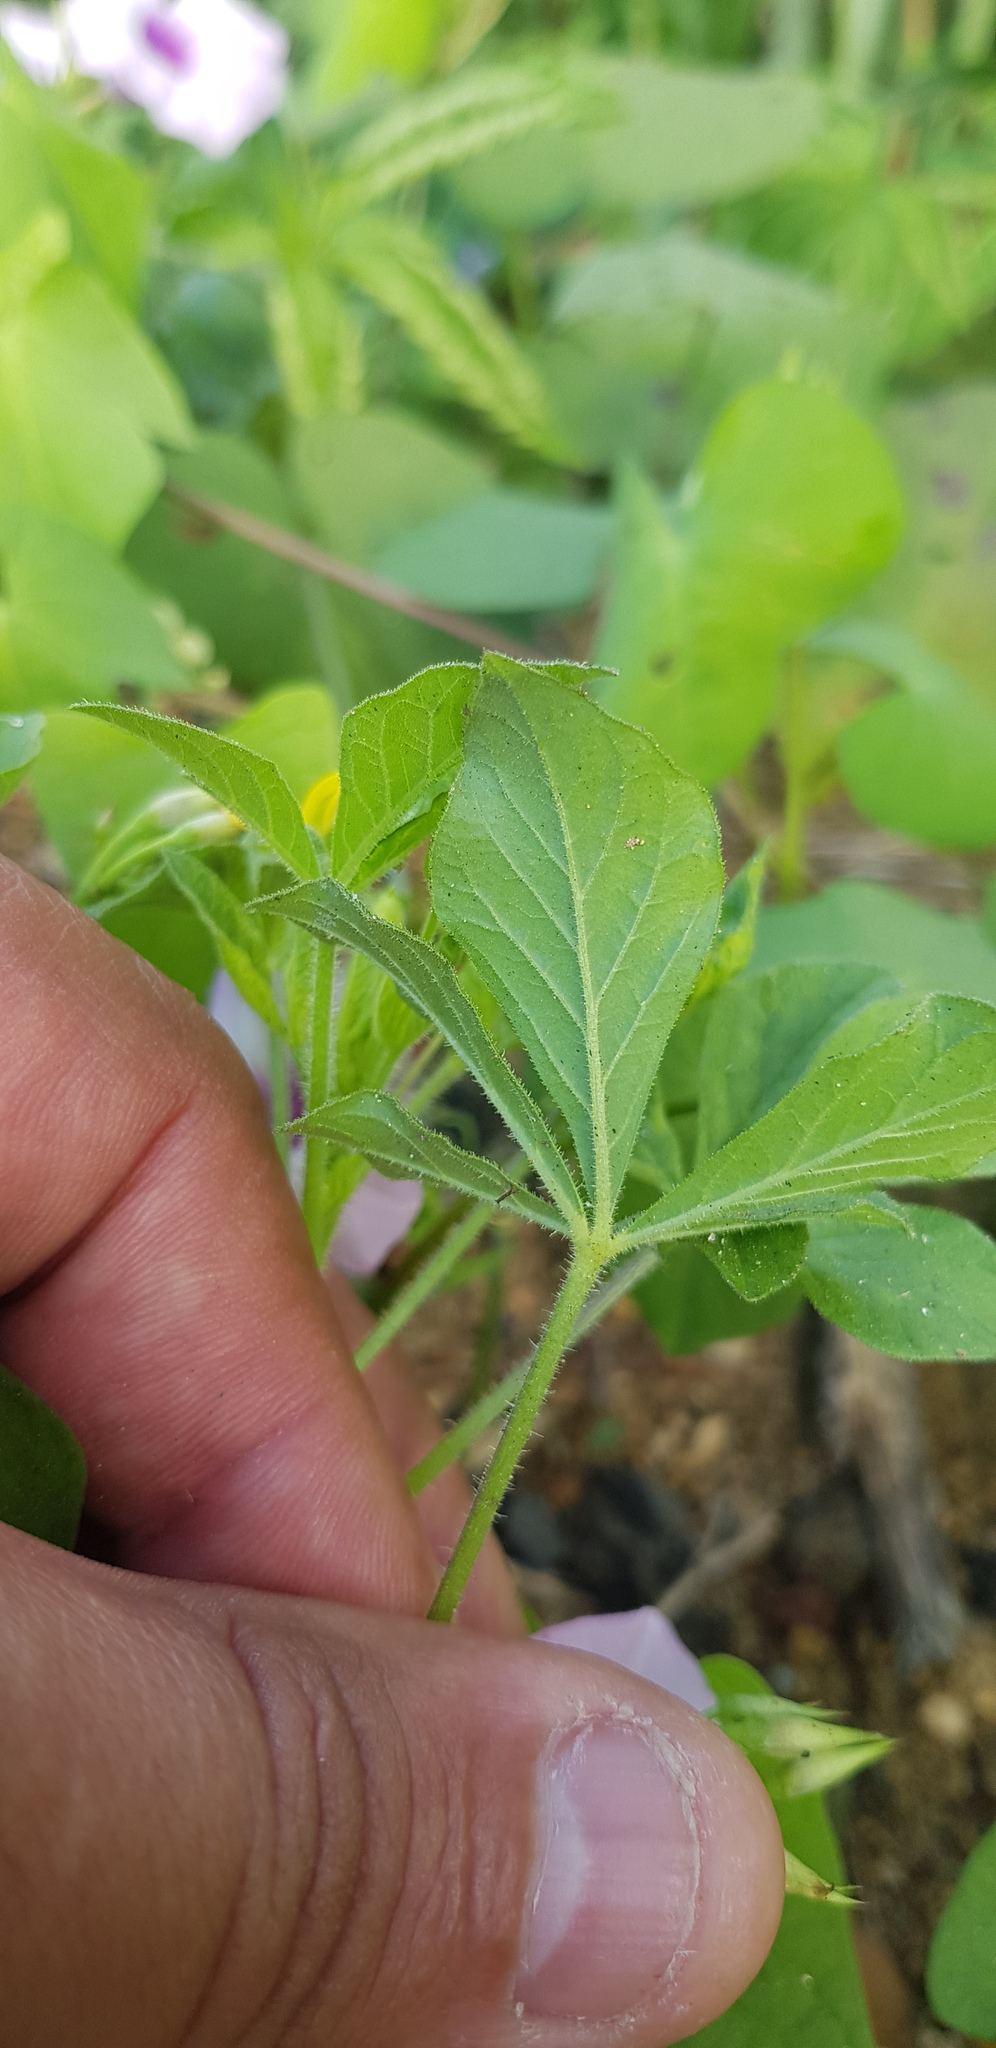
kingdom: Plantae
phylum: Tracheophyta
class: Magnoliopsida
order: Brassicales
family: Cleomaceae
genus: Arivela
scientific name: Arivela viscosa
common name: Asian spiderflower
